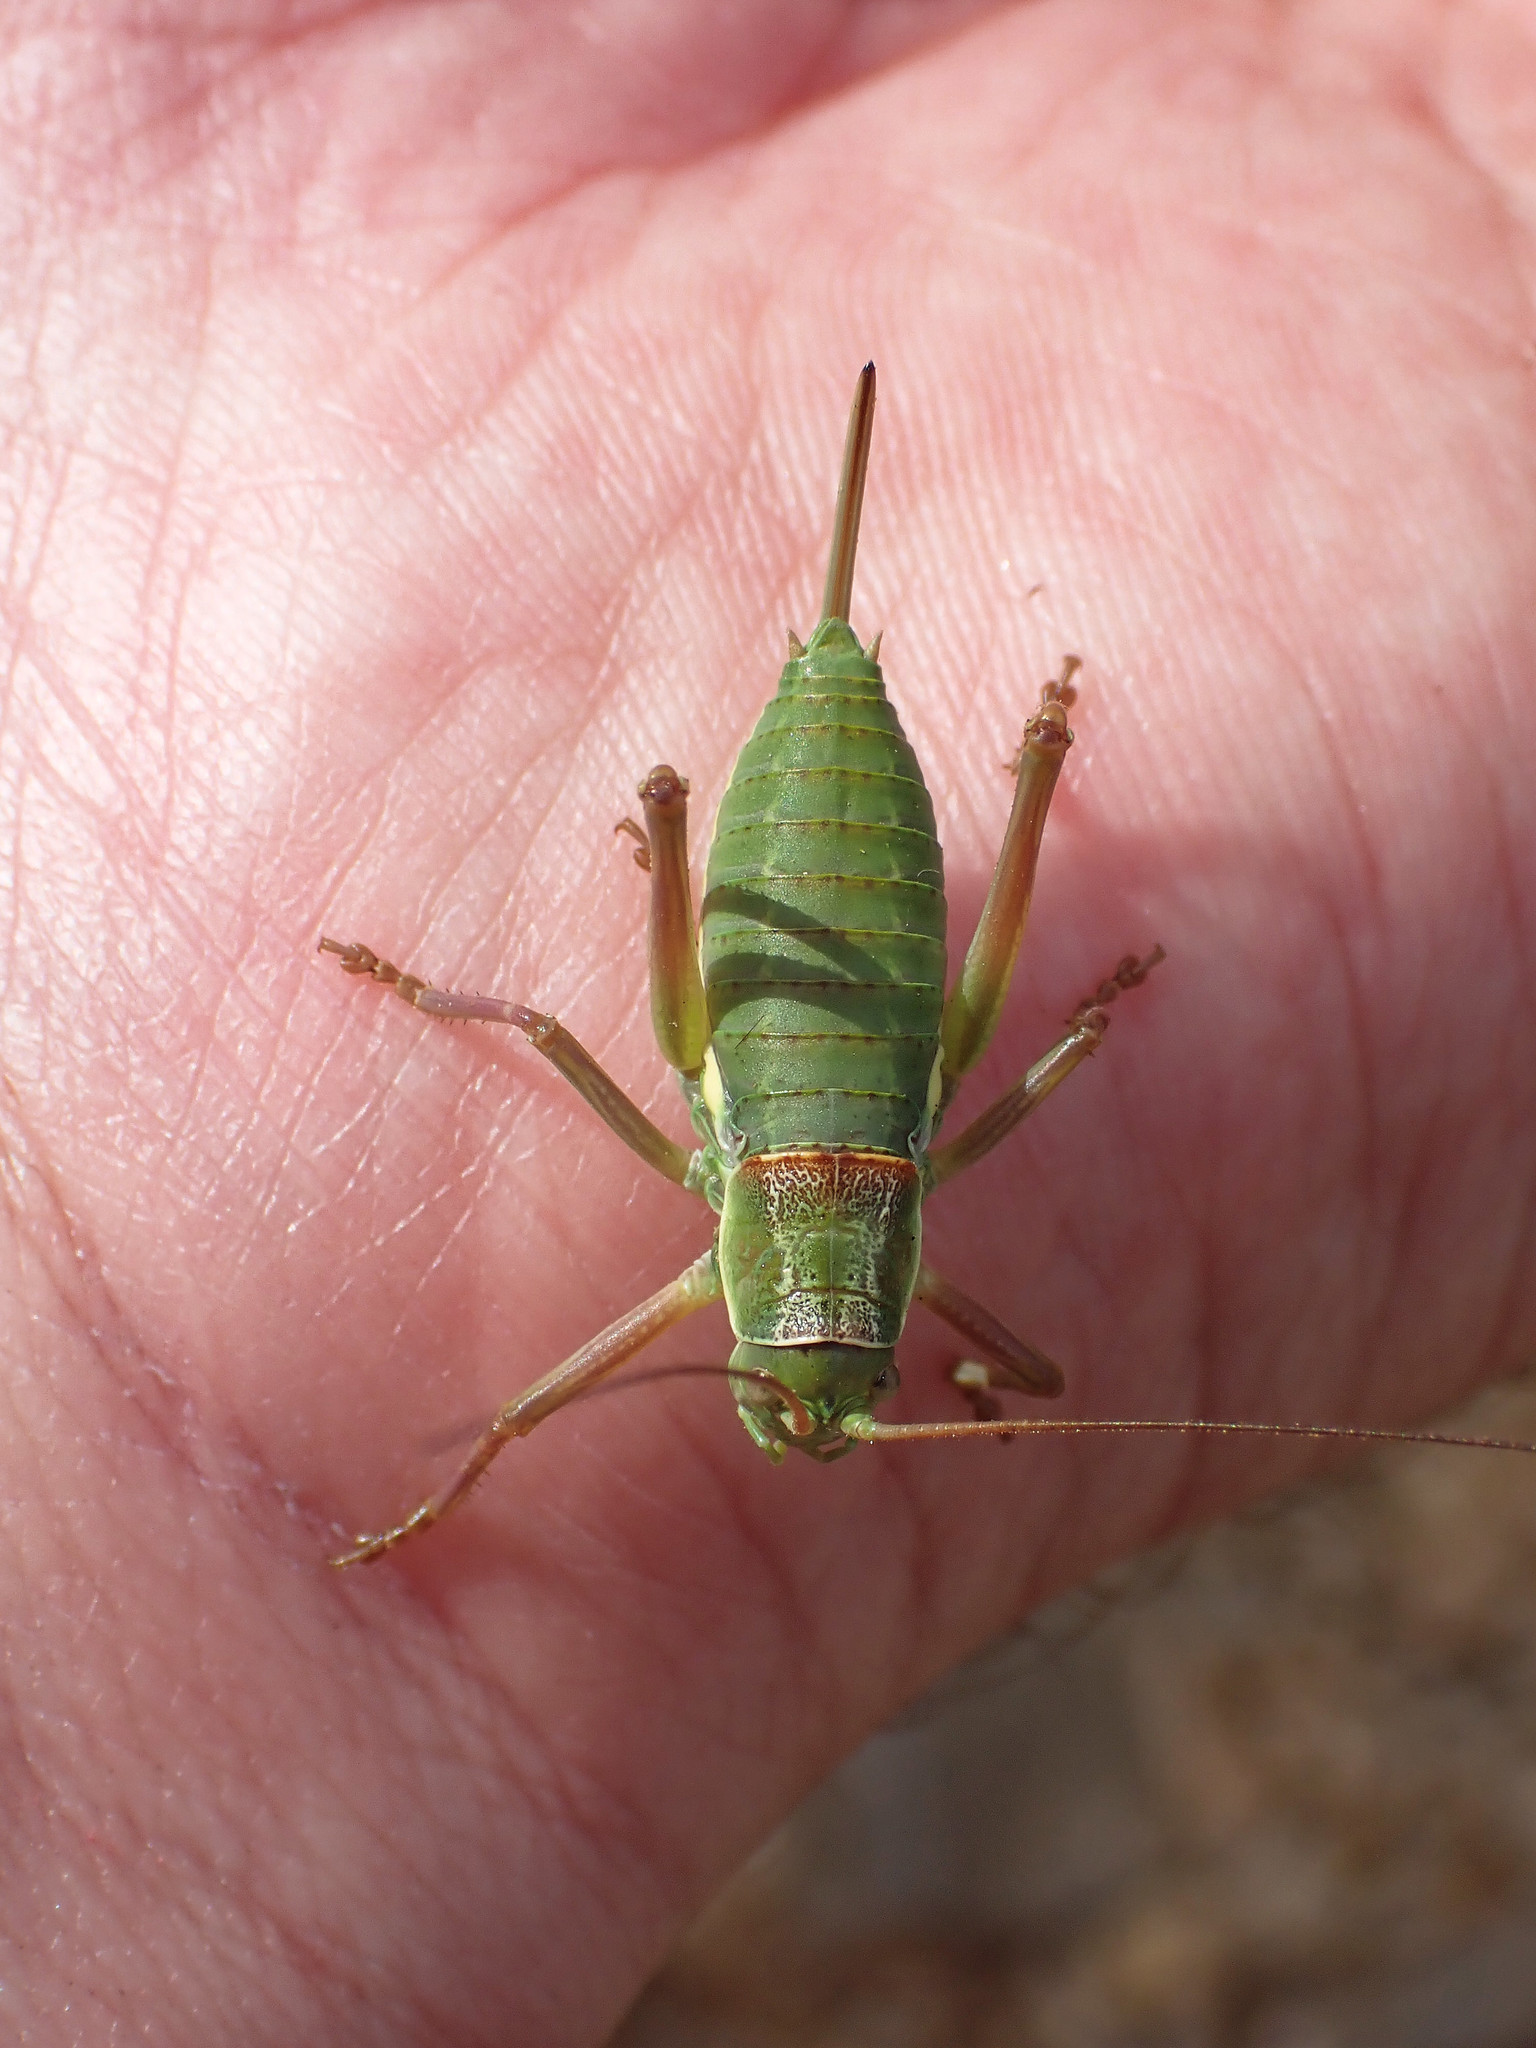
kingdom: Animalia
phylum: Arthropoda
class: Insecta
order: Orthoptera
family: Tettigoniidae
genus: Ephippiger
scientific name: Ephippiger diurnus
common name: Western saddle bush-cricket
